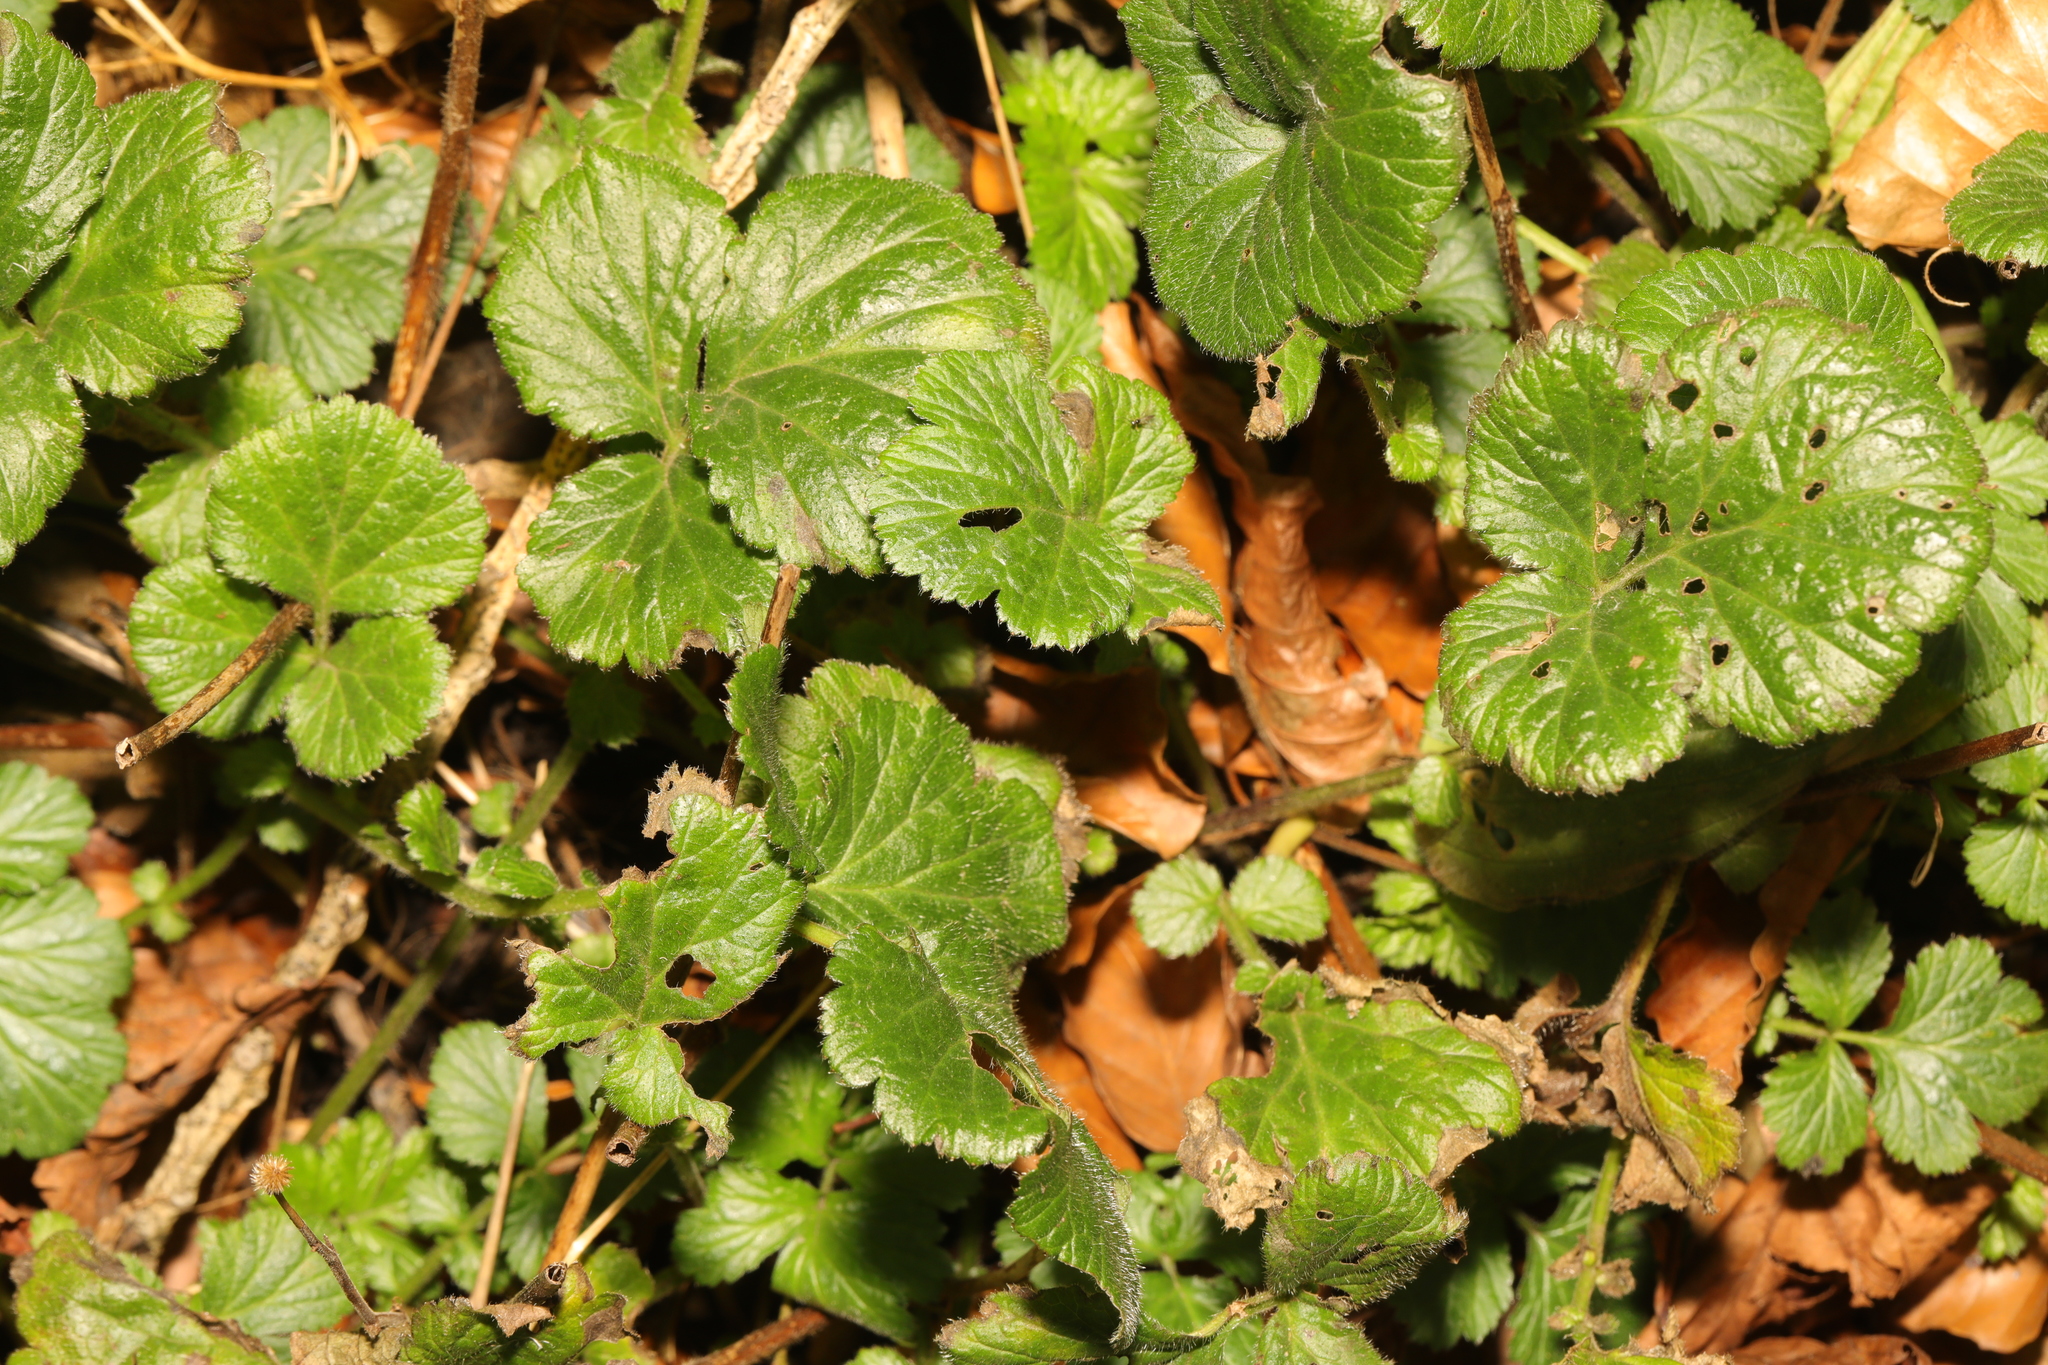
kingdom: Plantae
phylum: Tracheophyta
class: Magnoliopsida
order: Rosales
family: Rosaceae
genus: Geum
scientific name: Geum urbanum
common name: Wood avens
